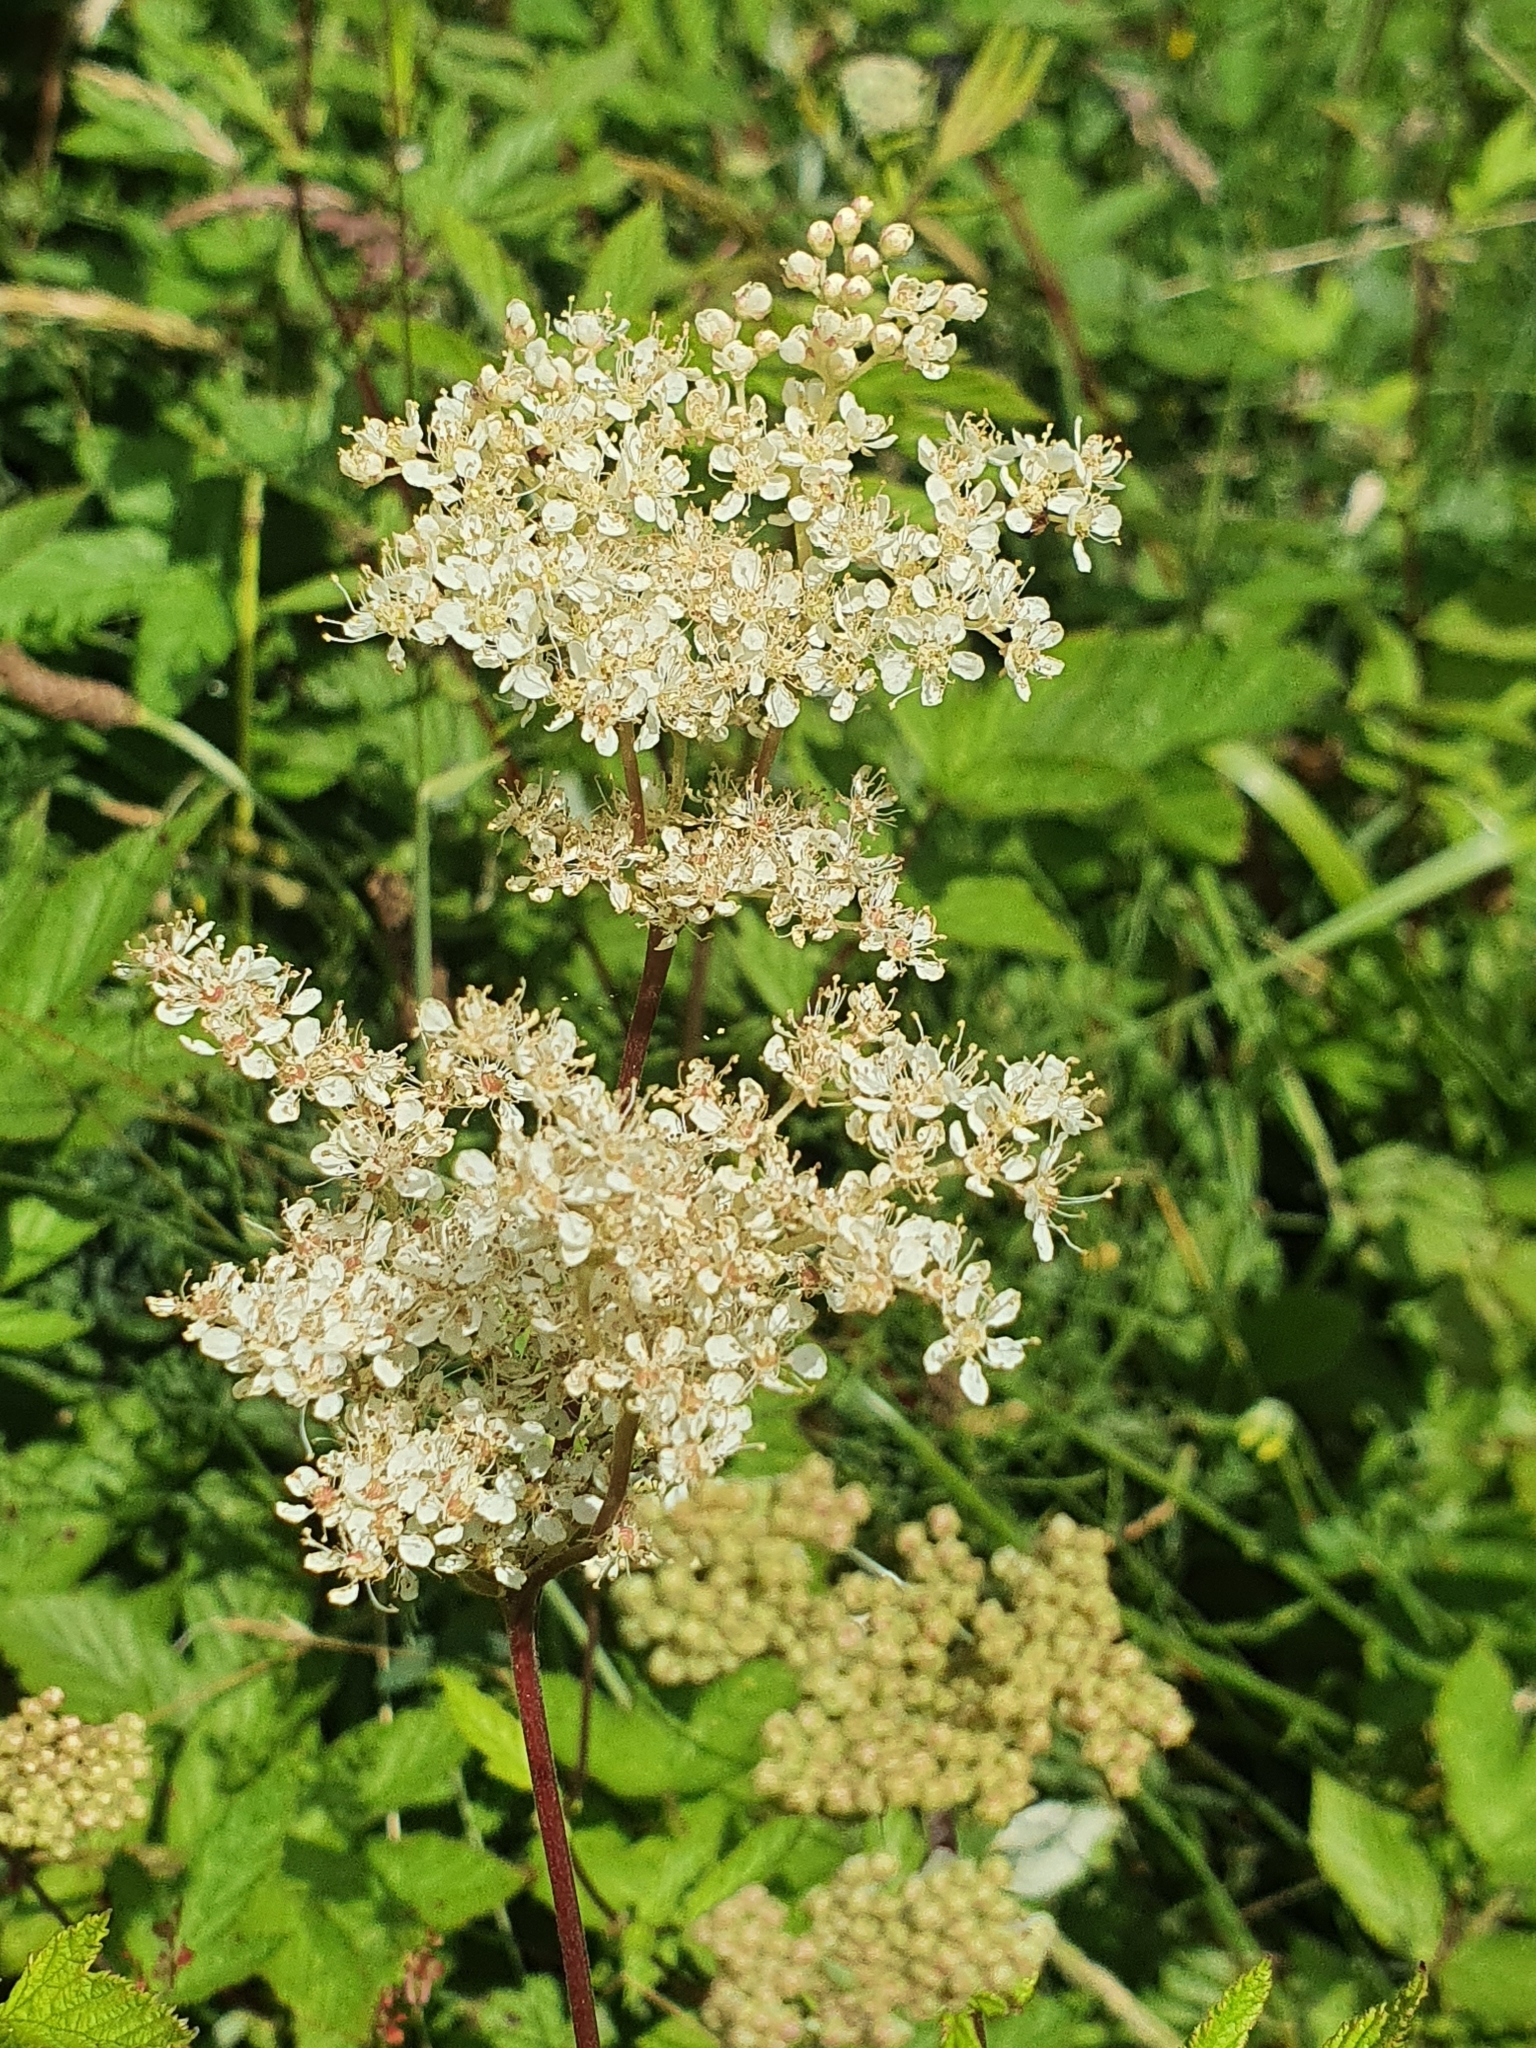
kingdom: Plantae
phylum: Tracheophyta
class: Magnoliopsida
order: Rosales
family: Rosaceae
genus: Filipendula
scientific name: Filipendula ulmaria
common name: Meadowsweet
